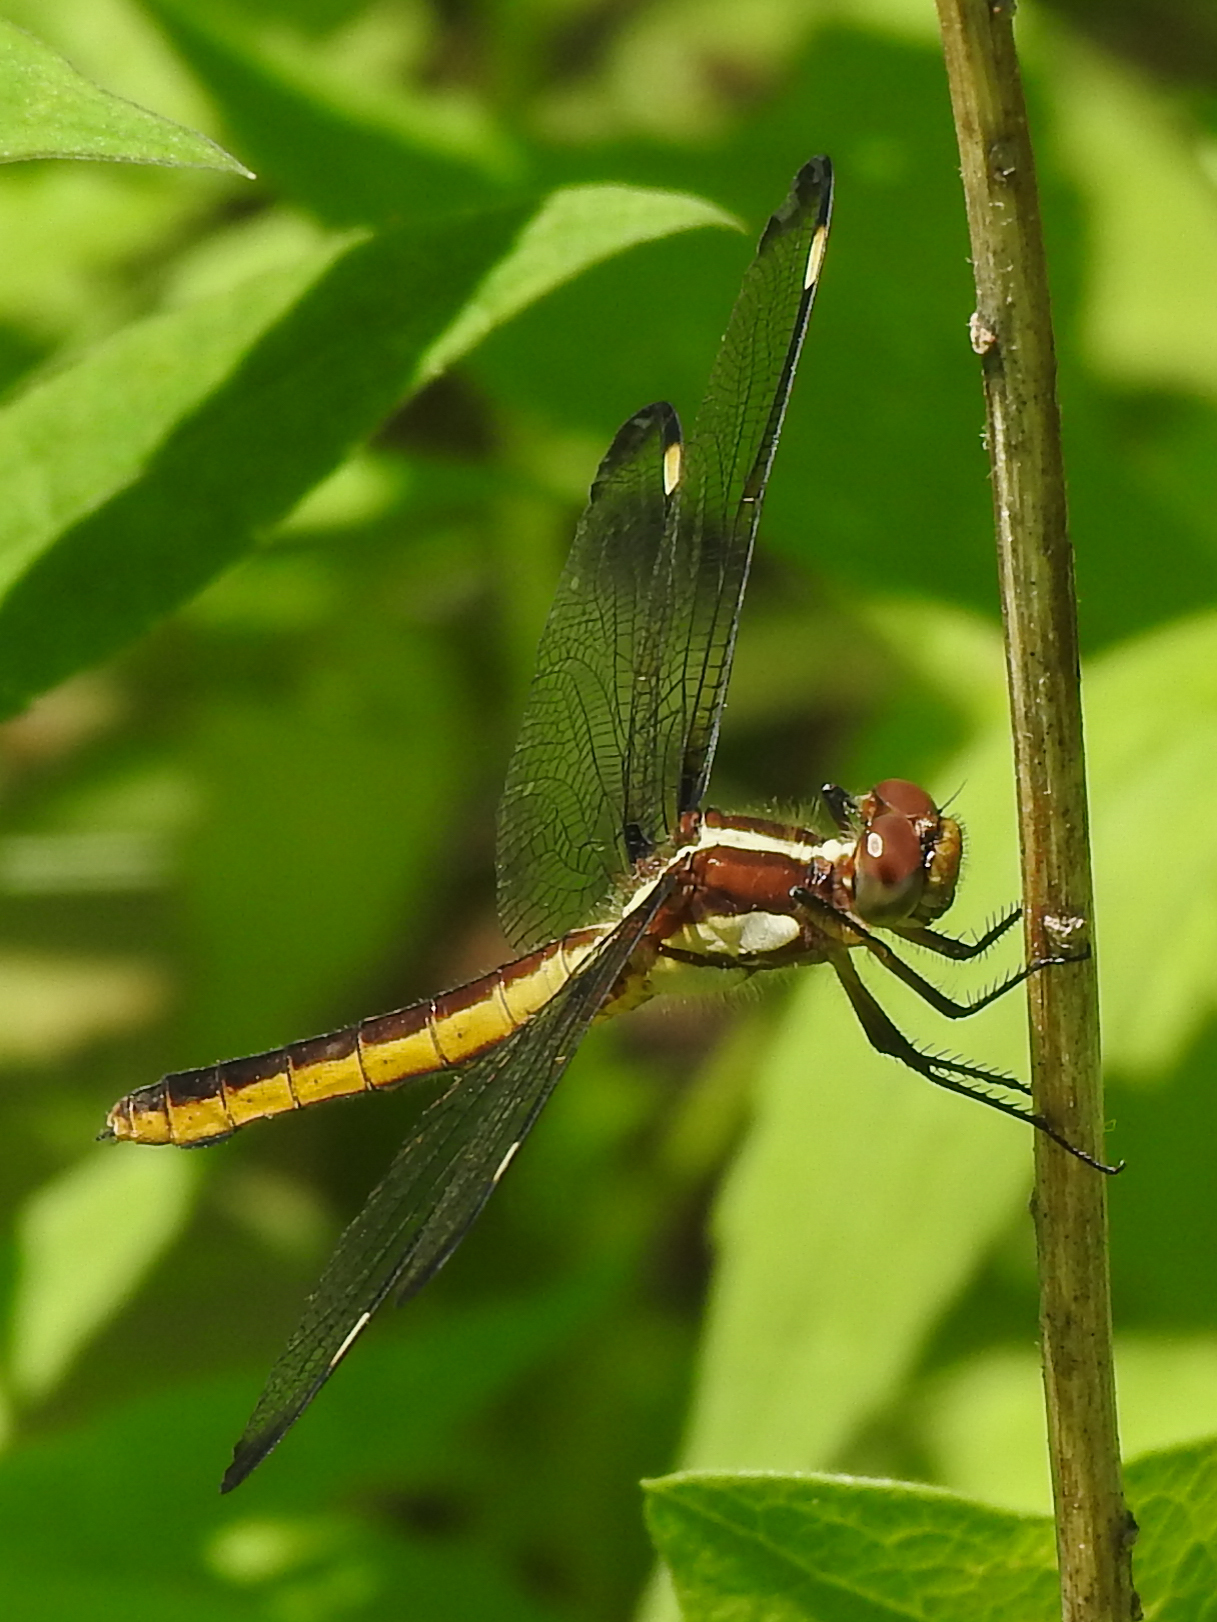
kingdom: Animalia
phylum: Arthropoda
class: Insecta
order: Odonata
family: Libellulidae
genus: Libellula
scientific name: Libellula cyanea
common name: Spangled skimmer
